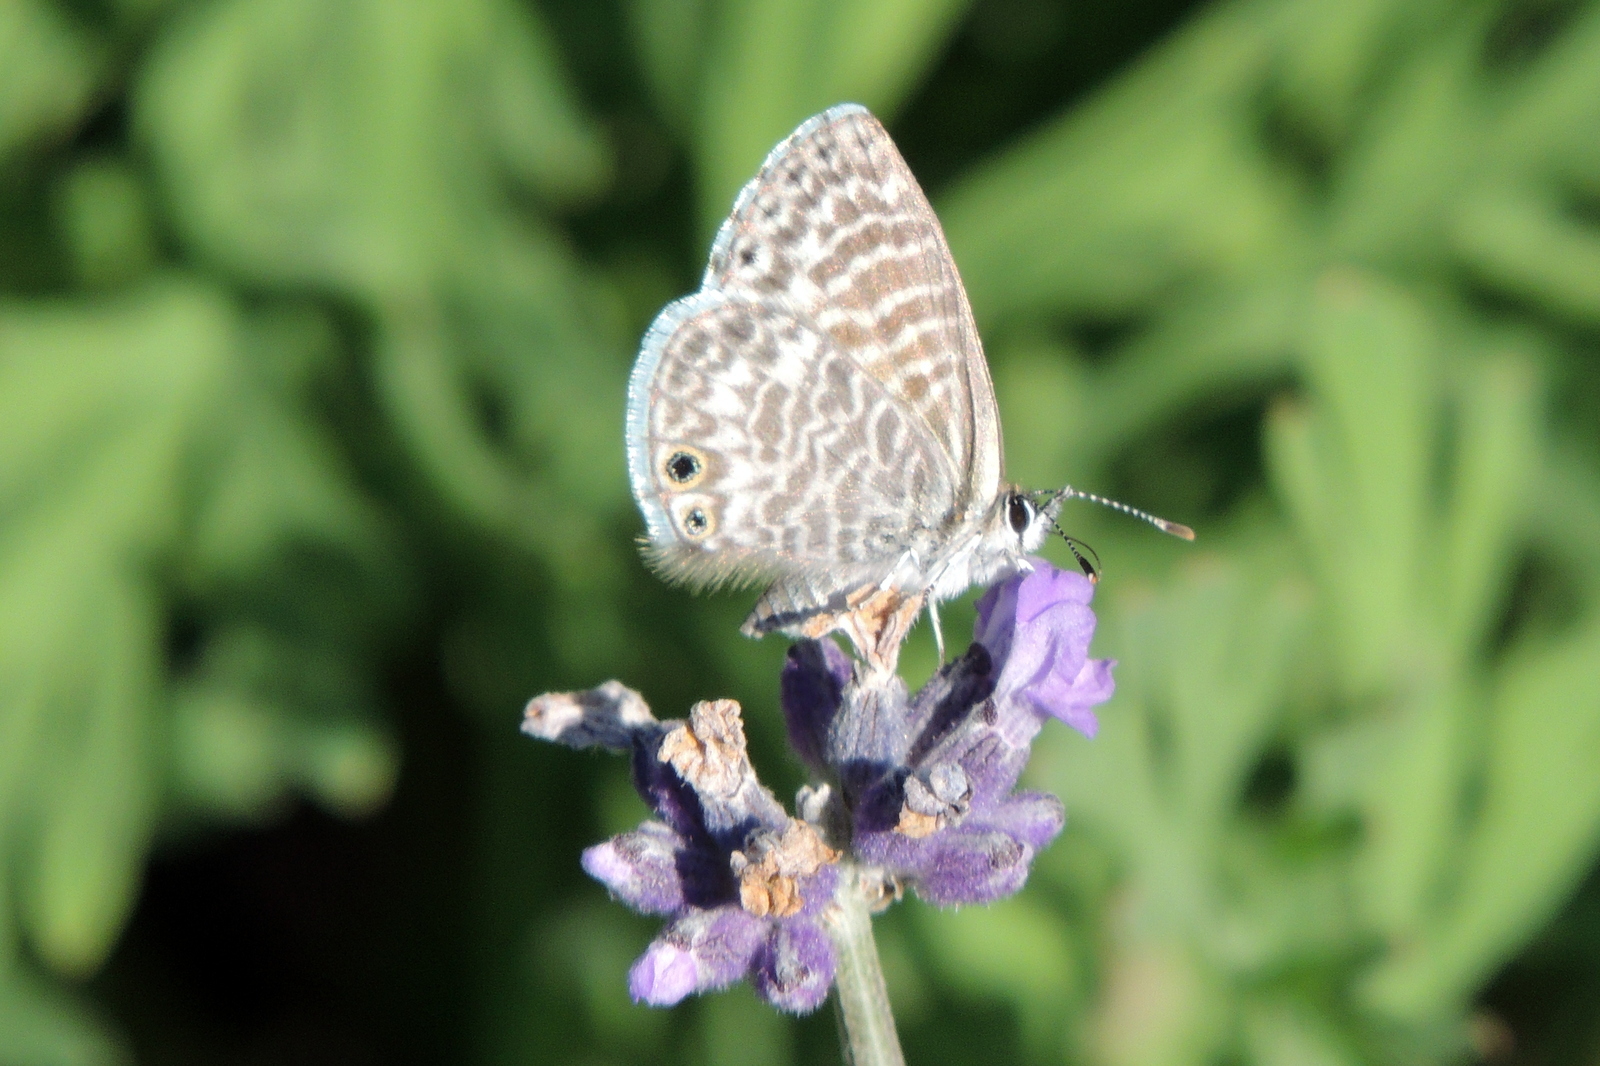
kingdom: Animalia
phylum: Arthropoda
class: Insecta
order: Lepidoptera
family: Lycaenidae
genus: Leptotes
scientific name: Leptotes marina
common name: Marine blue
